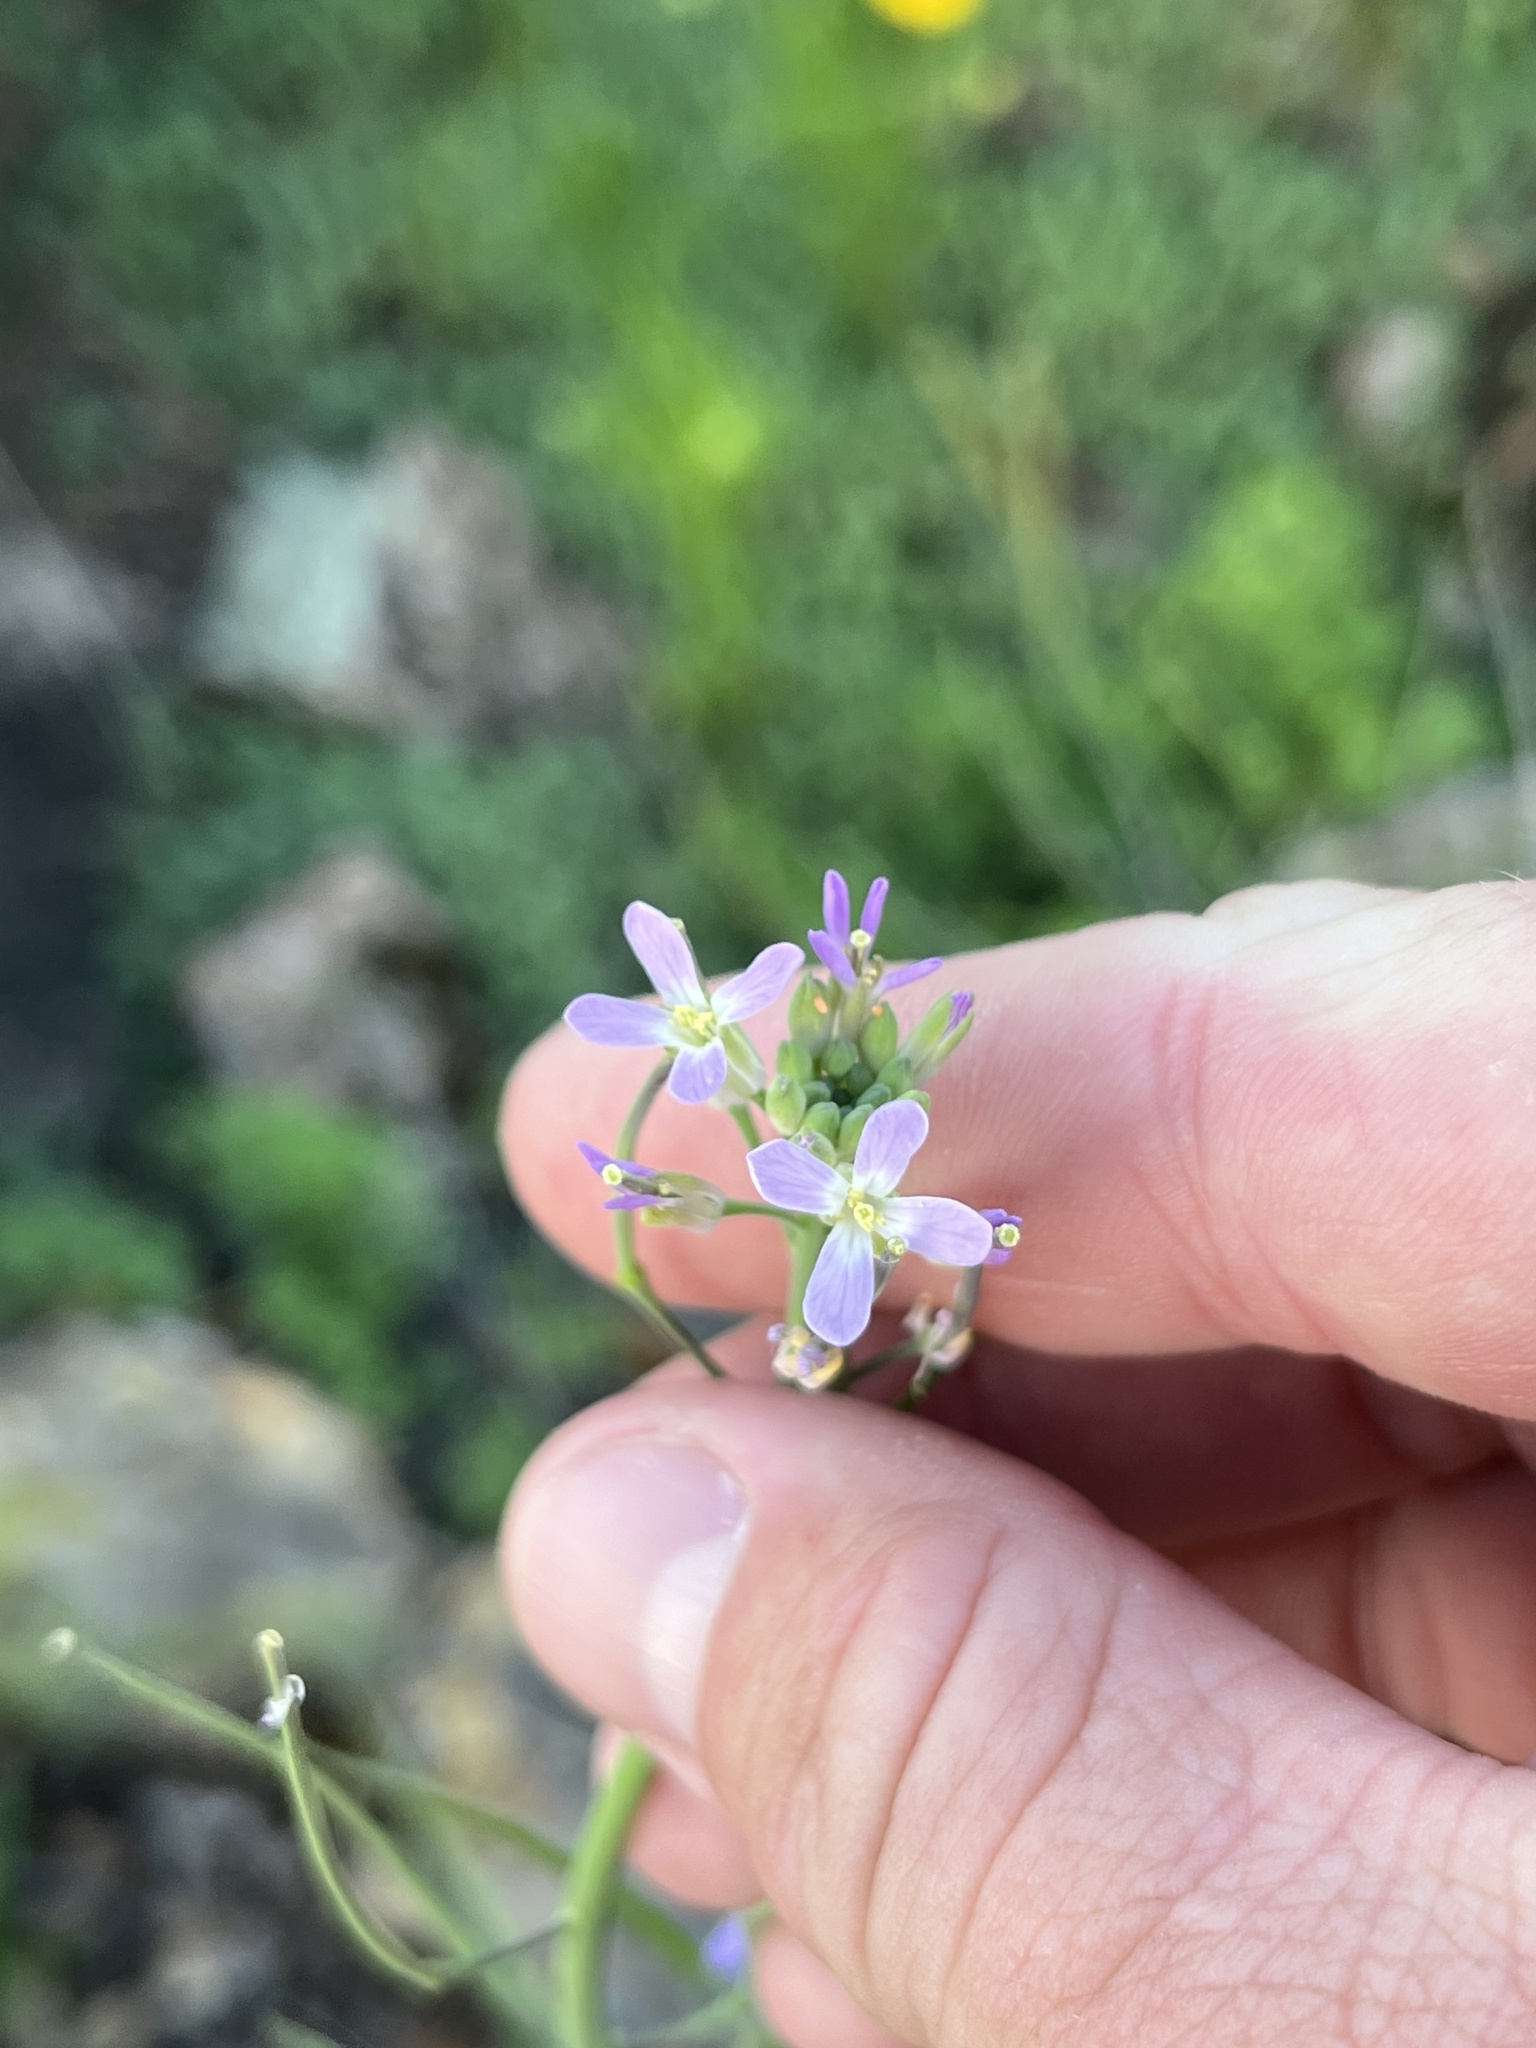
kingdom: Plantae
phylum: Tracheophyta
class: Magnoliopsida
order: Brassicales
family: Brassicaceae
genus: Streptanthus
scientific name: Streptanthus petiolaris
